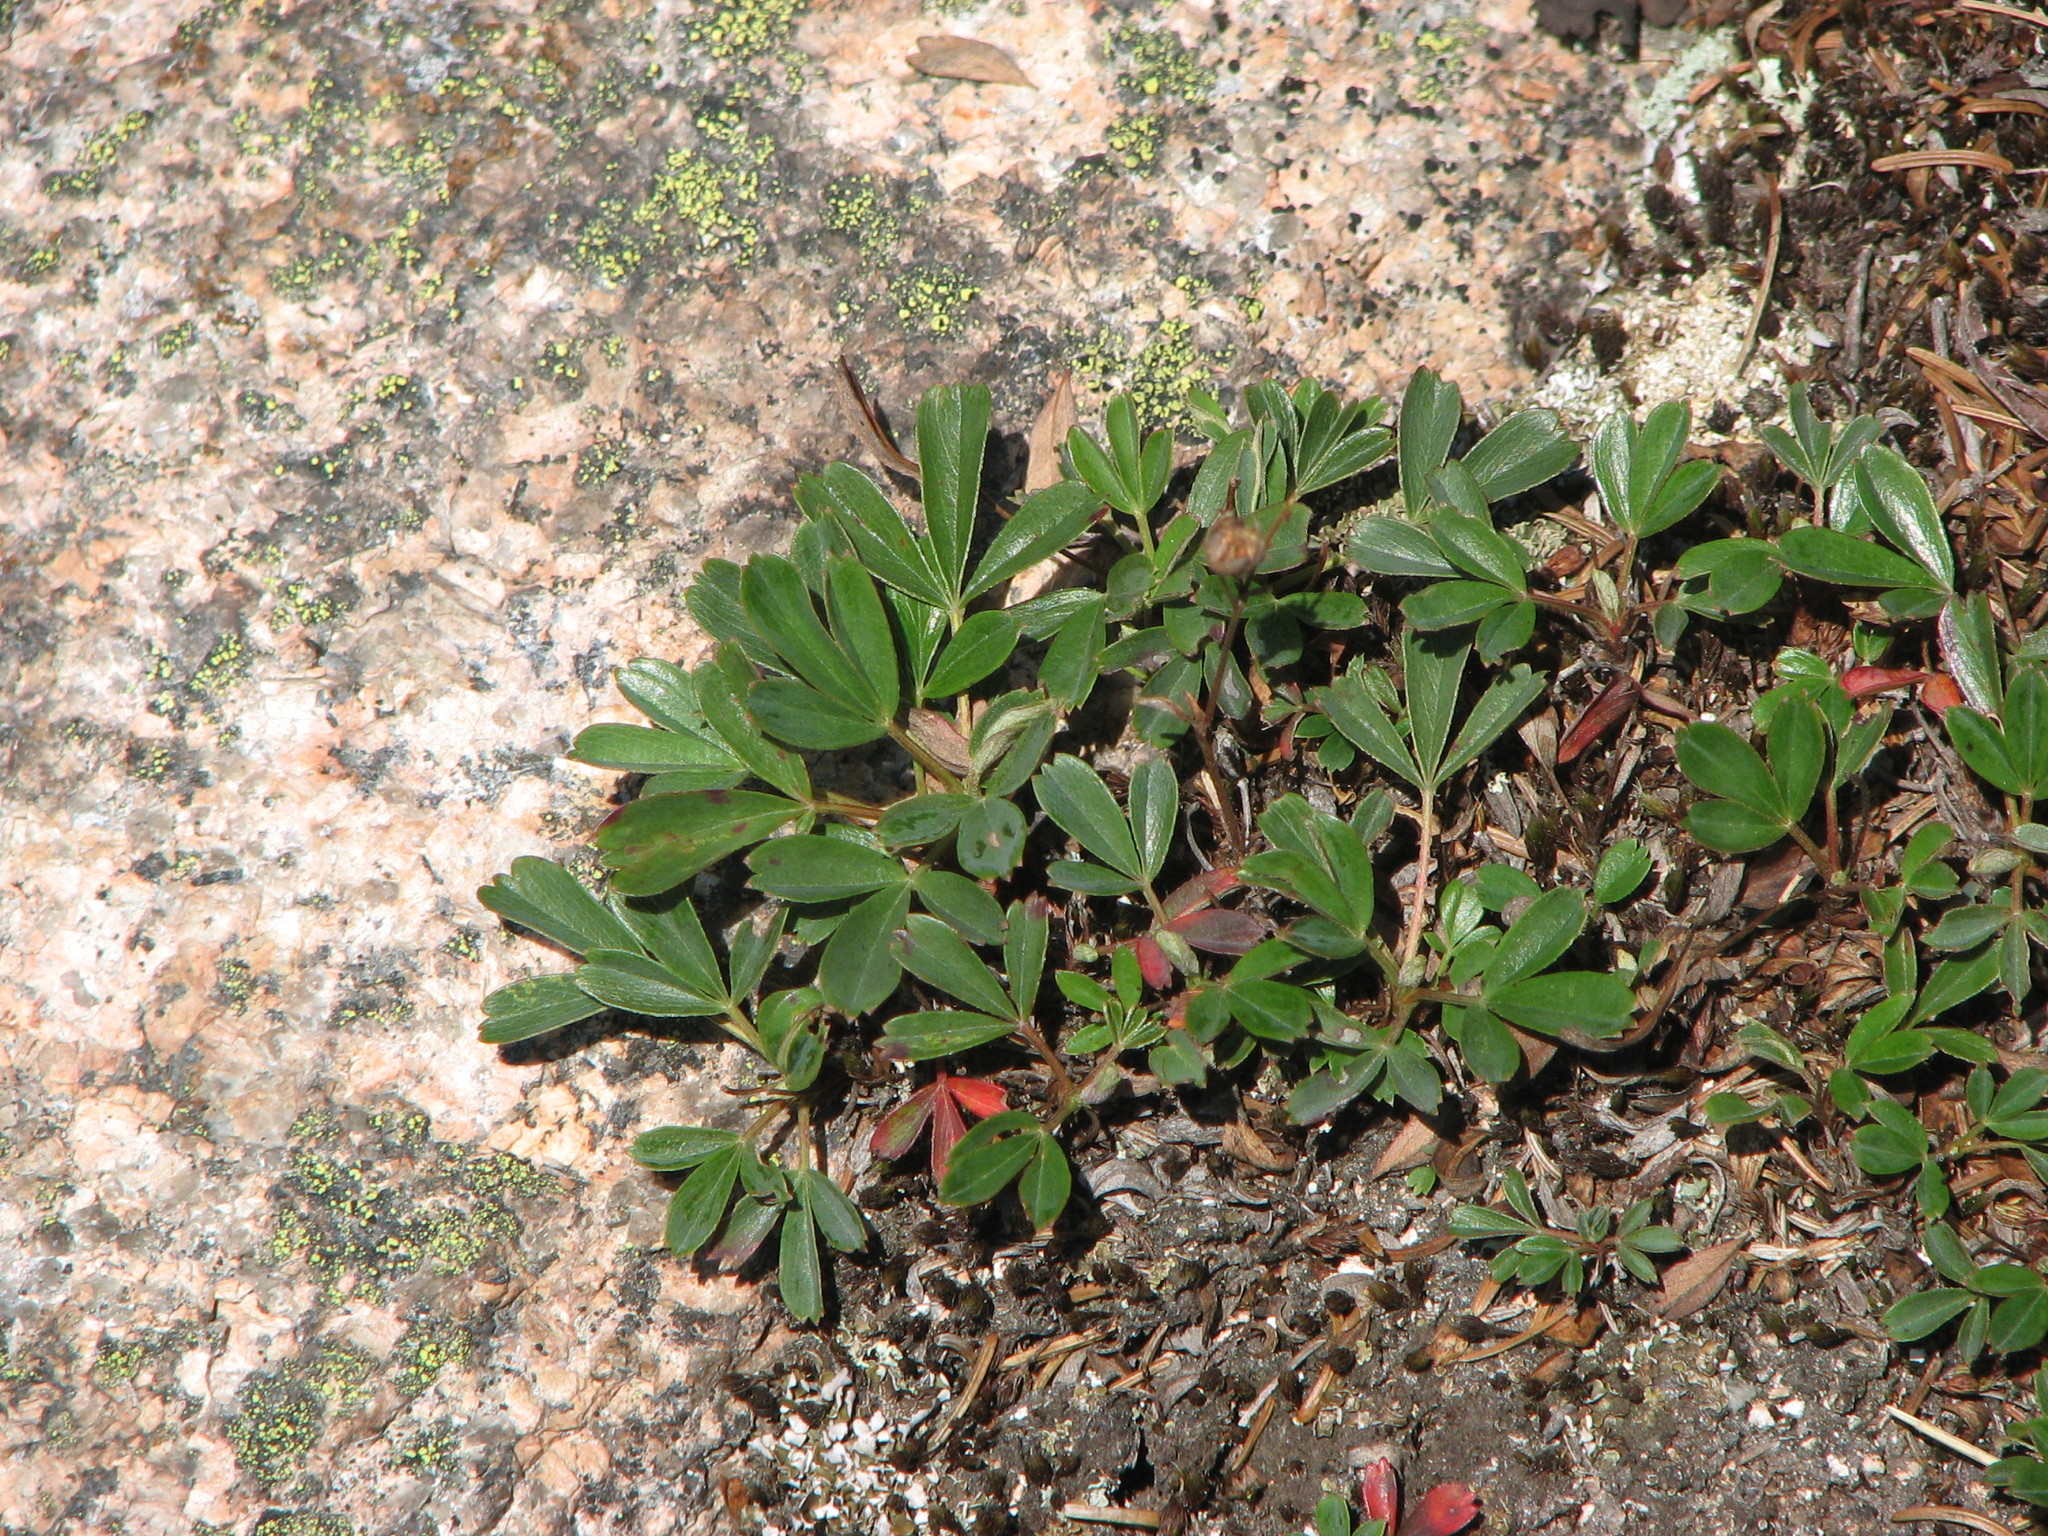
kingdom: Plantae
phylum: Tracheophyta
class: Magnoliopsida
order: Rosales
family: Rosaceae
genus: Sibbaldia
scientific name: Sibbaldia tridentata
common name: Three-toothed cinquefoil
